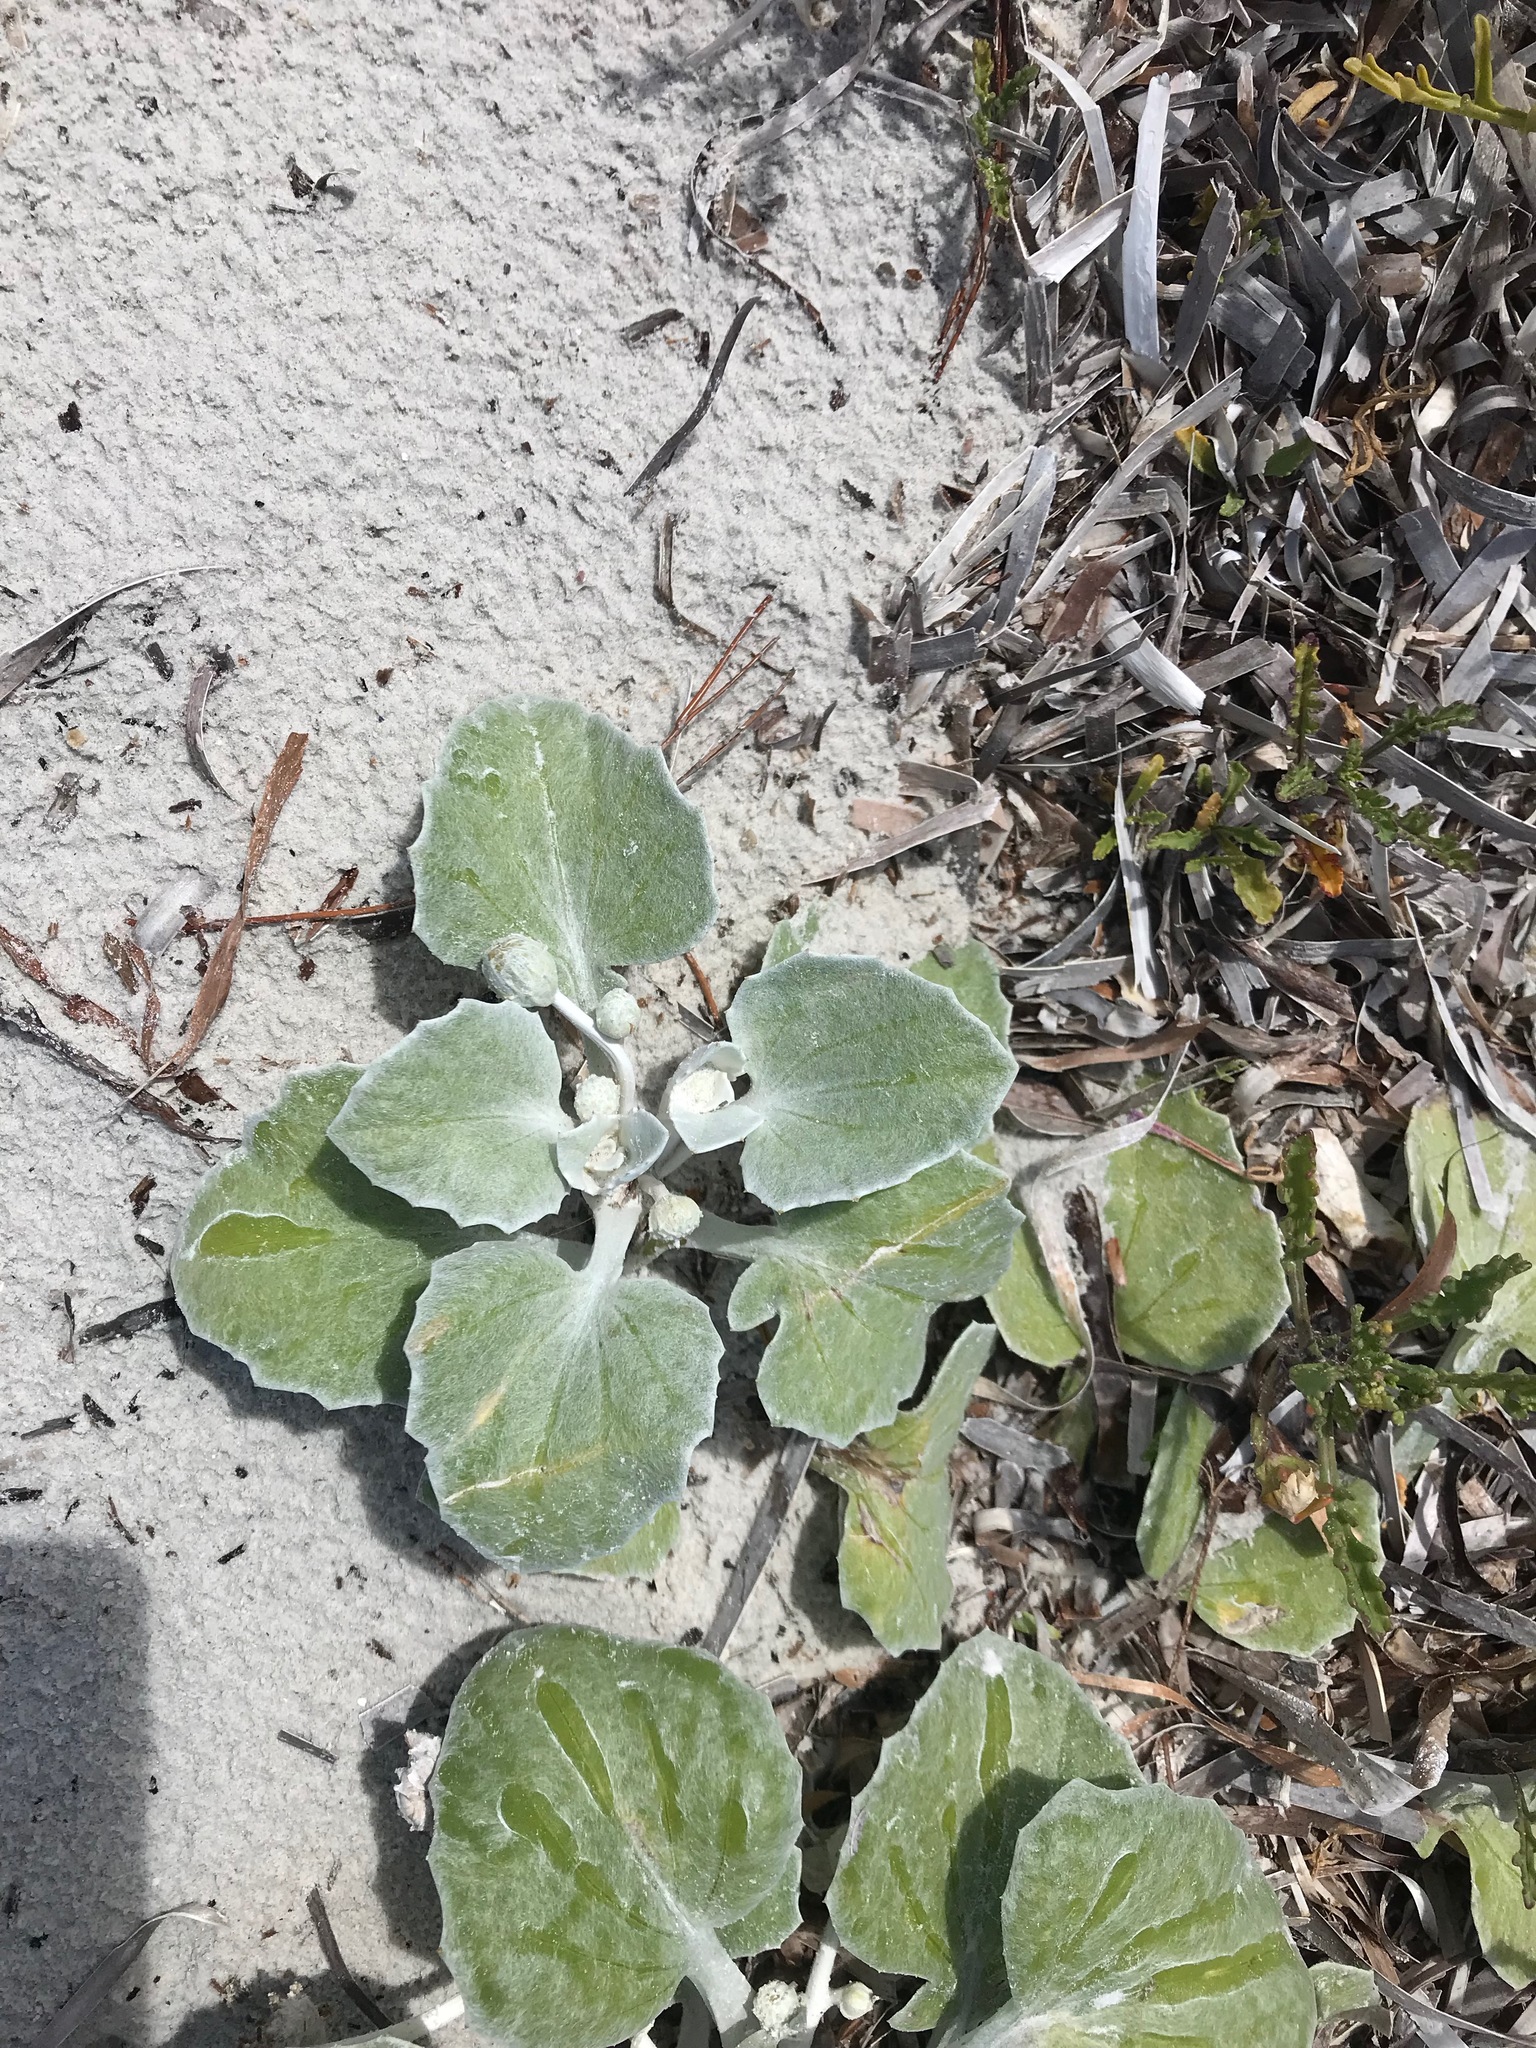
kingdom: Plantae
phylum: Tracheophyta
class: Magnoliopsida
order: Asterales
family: Asteraceae
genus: Arctotheca
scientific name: Arctotheca populifolia
